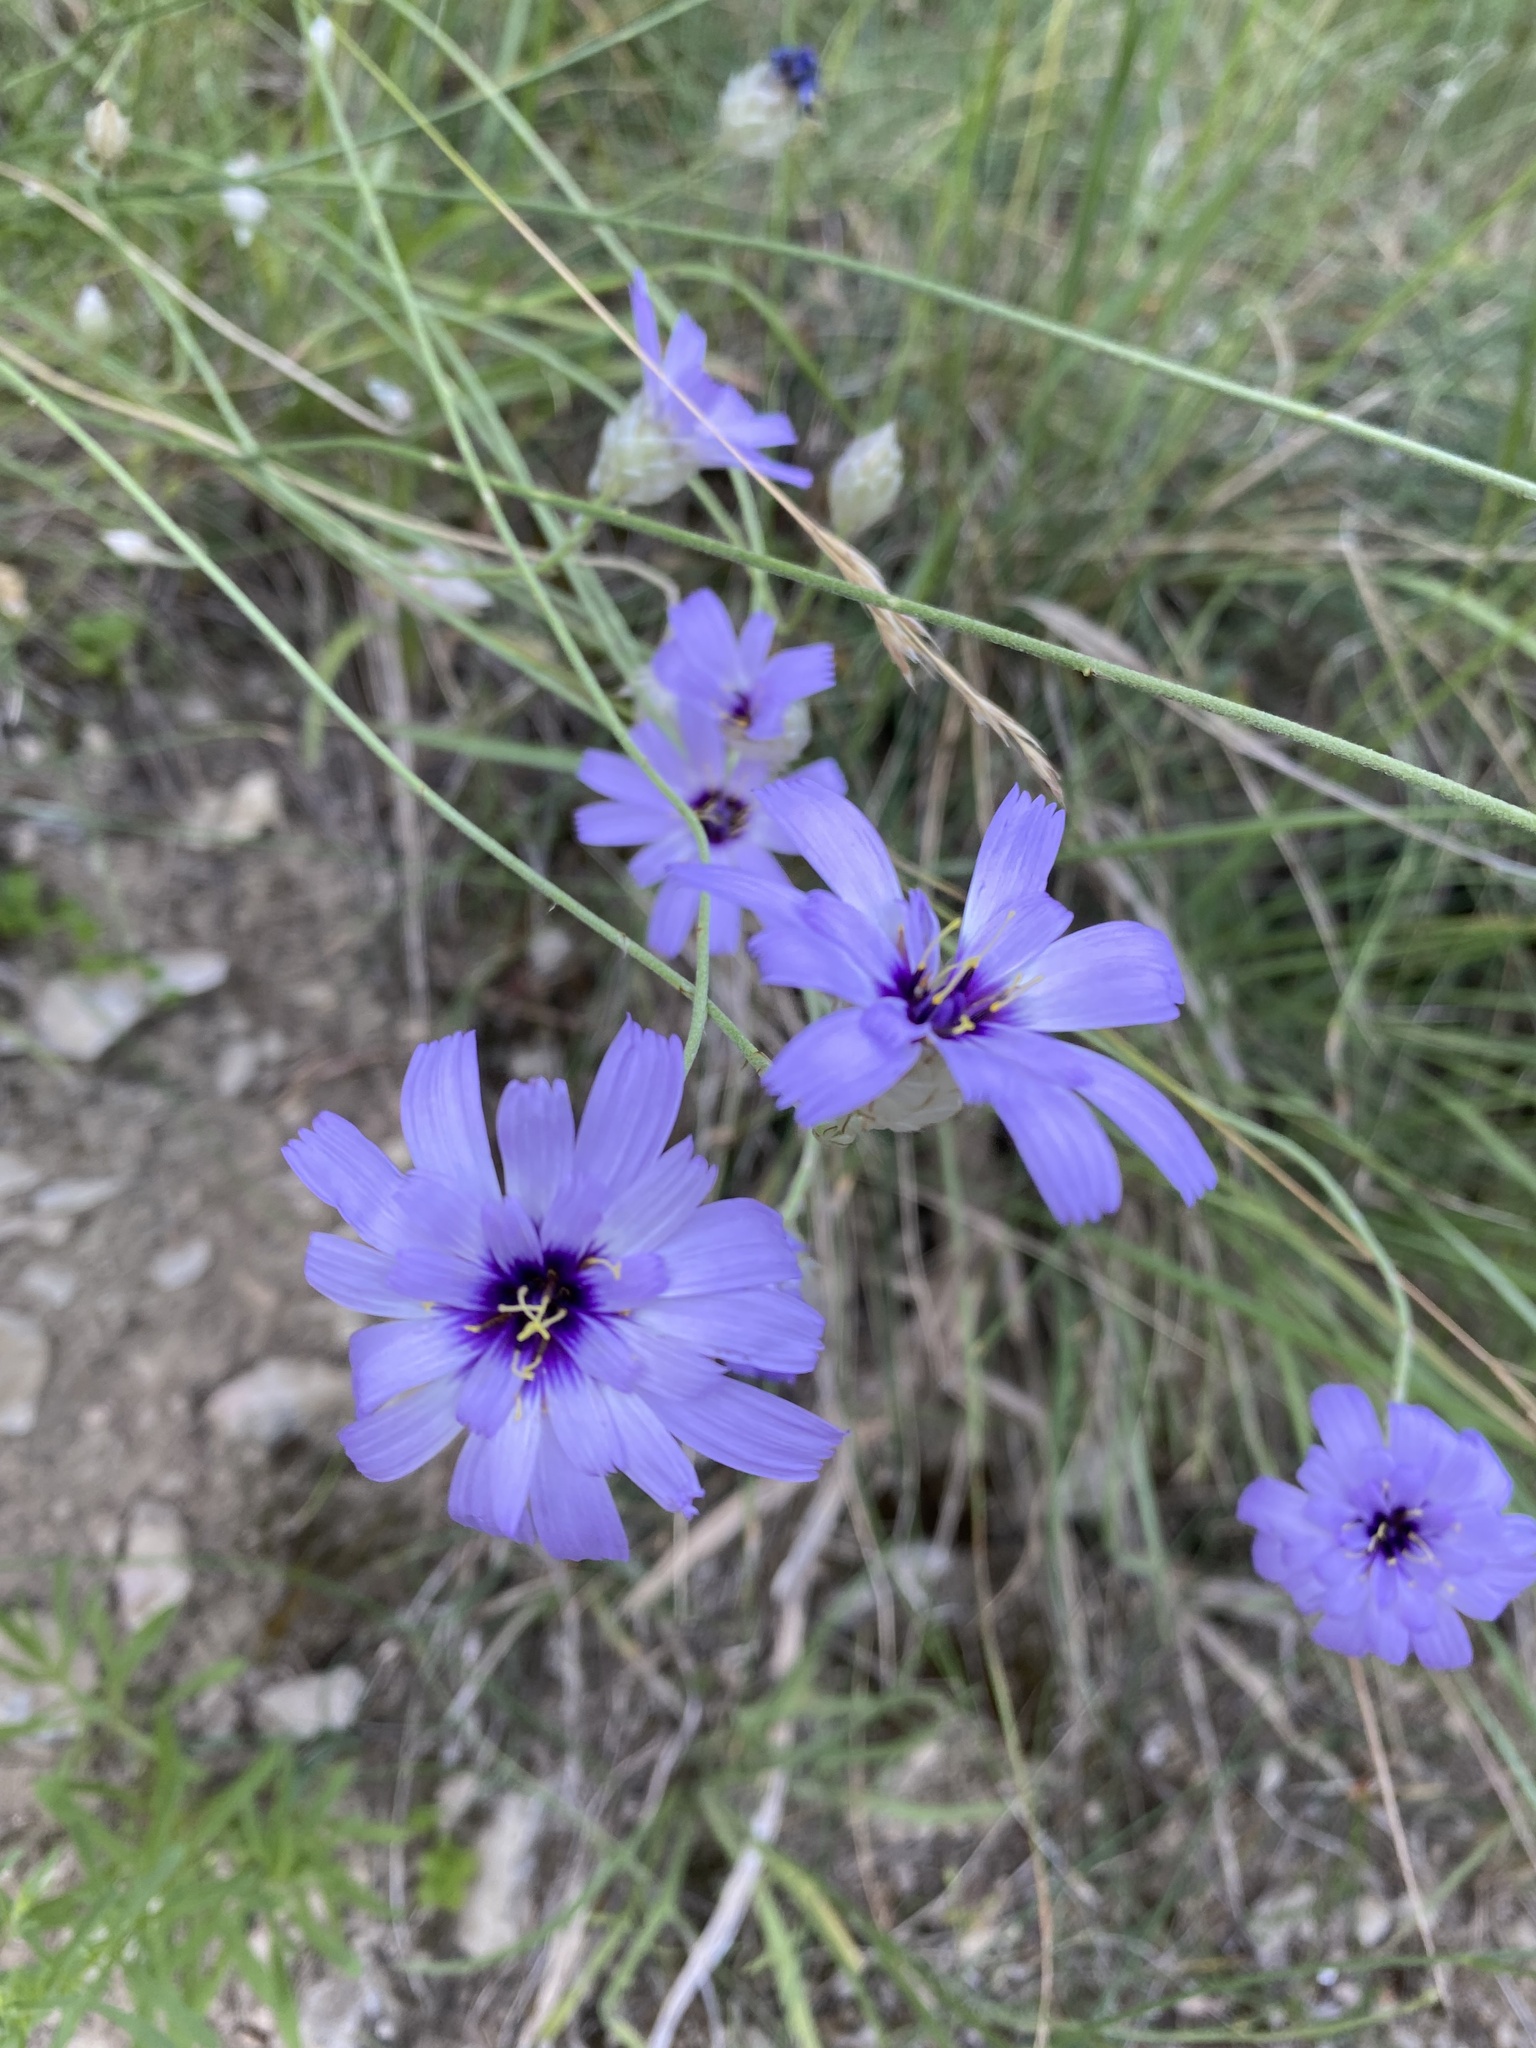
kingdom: Plantae
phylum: Tracheophyta
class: Magnoliopsida
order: Asterales
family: Asteraceae
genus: Catananche
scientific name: Catananche caerulea
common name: Blue cupidone
